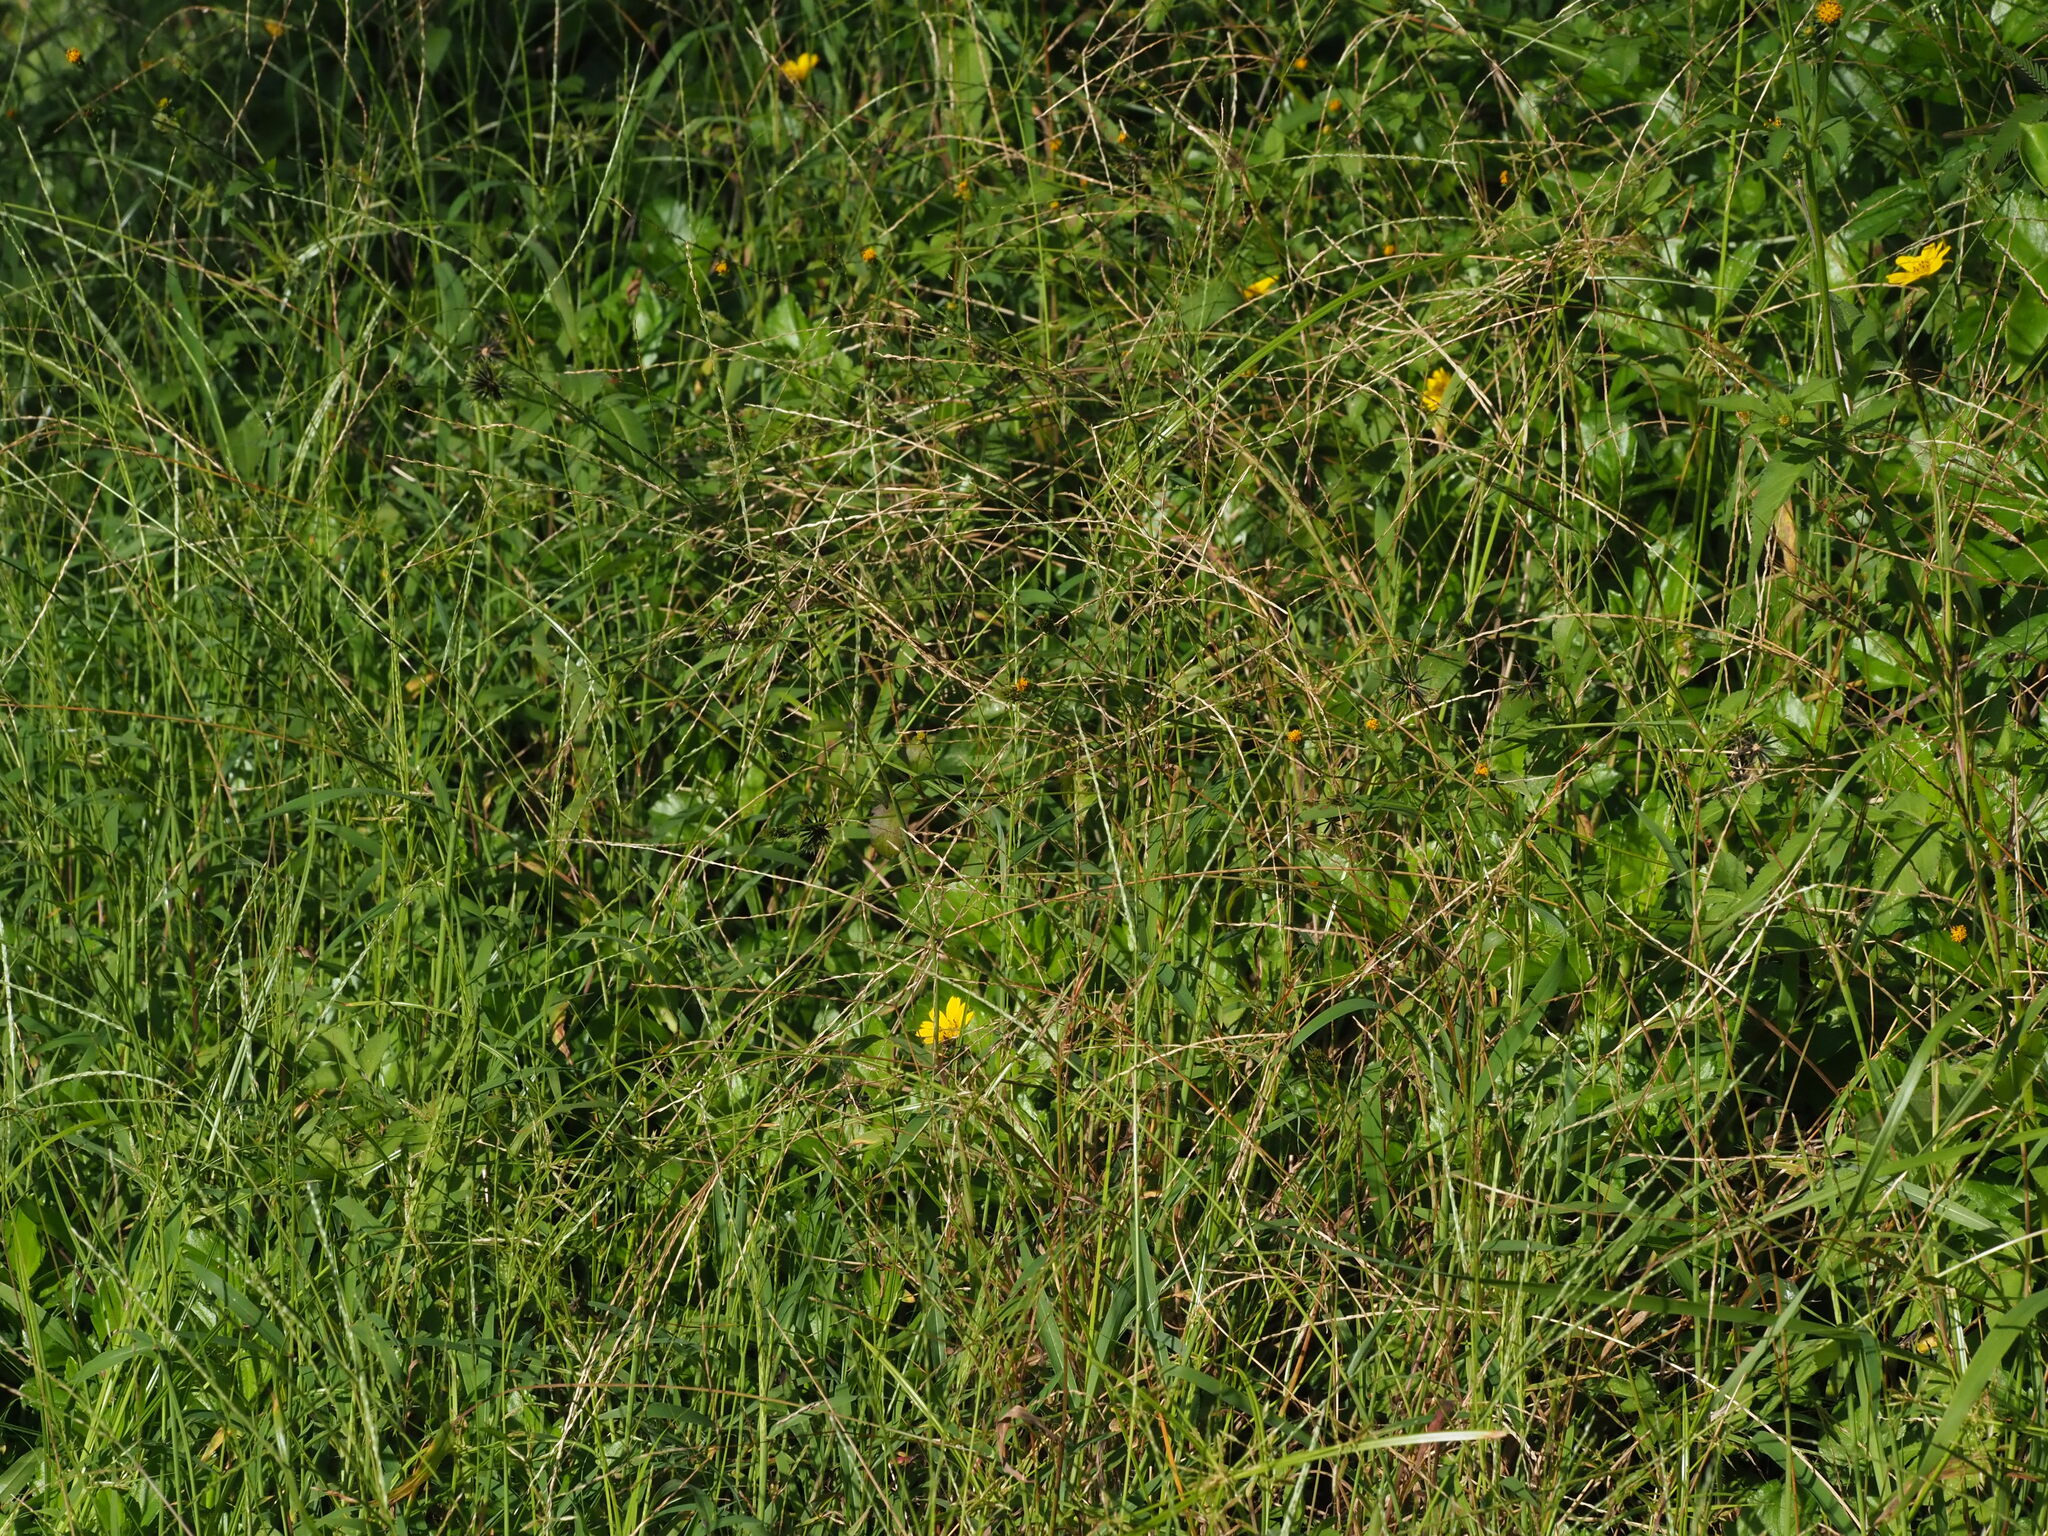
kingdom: Plantae
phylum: Tracheophyta
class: Liliopsida
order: Poales
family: Poaceae
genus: Digitaria
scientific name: Digitaria ciliaris
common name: Tropical finger-grass
